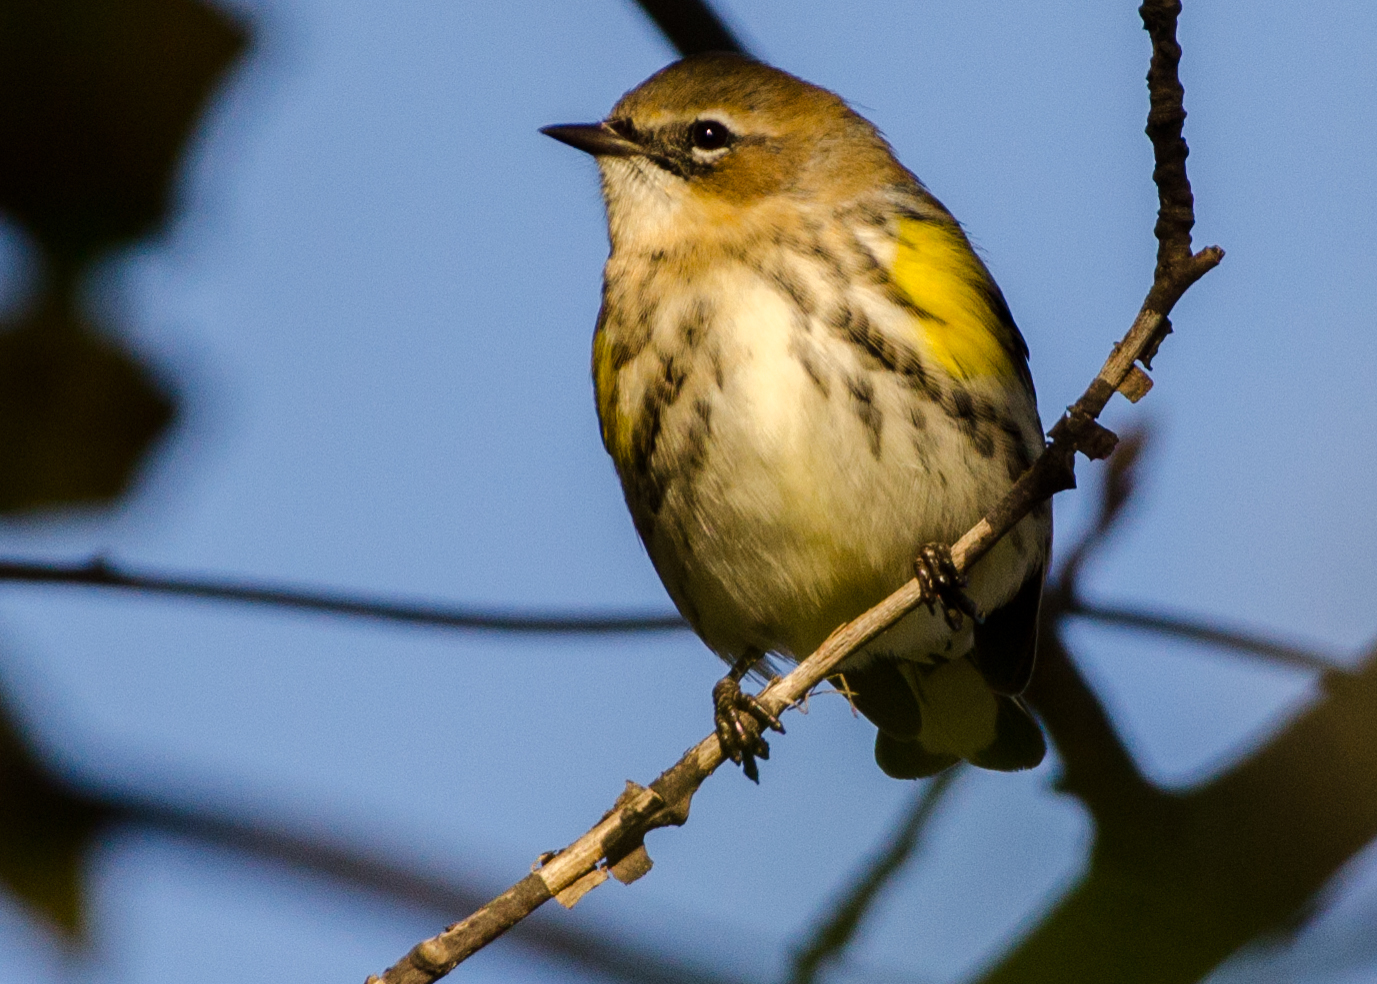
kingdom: Animalia
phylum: Chordata
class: Aves
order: Passeriformes
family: Parulidae
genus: Setophaga
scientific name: Setophaga coronata
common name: Myrtle warbler
